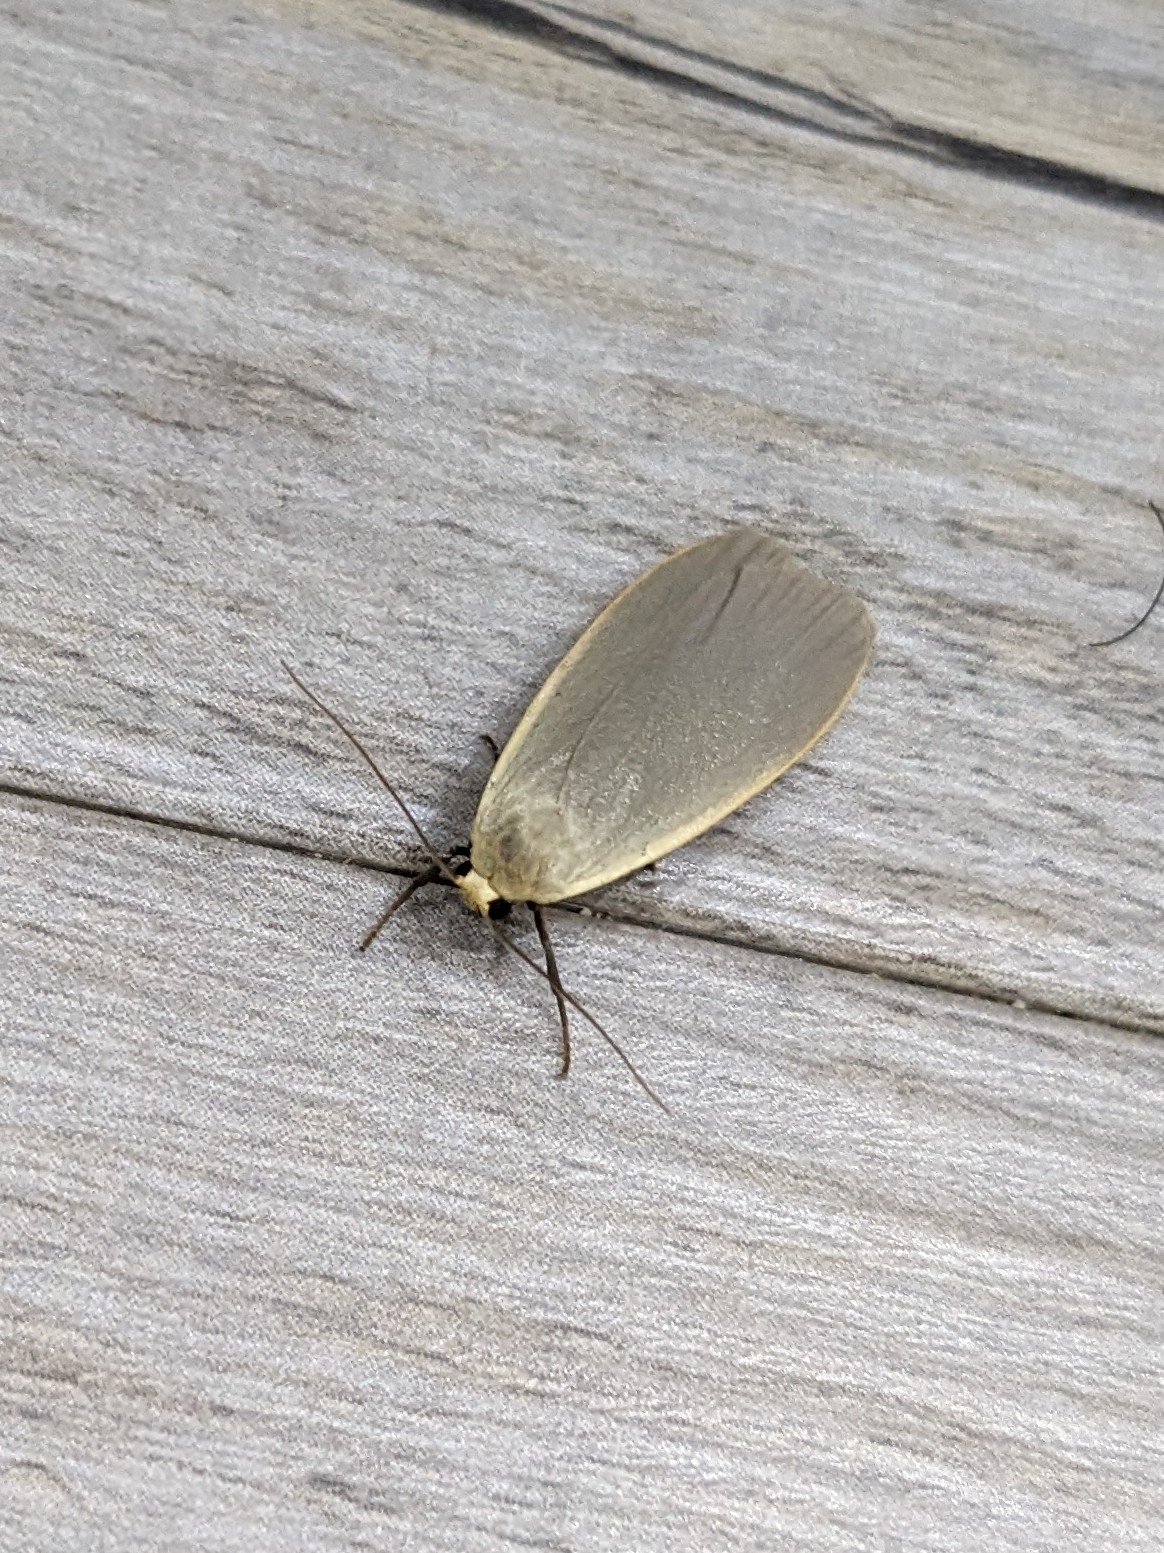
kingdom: Animalia
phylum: Arthropoda
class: Insecta
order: Lepidoptera
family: Erebidae
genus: Collita
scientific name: Collita griseola
